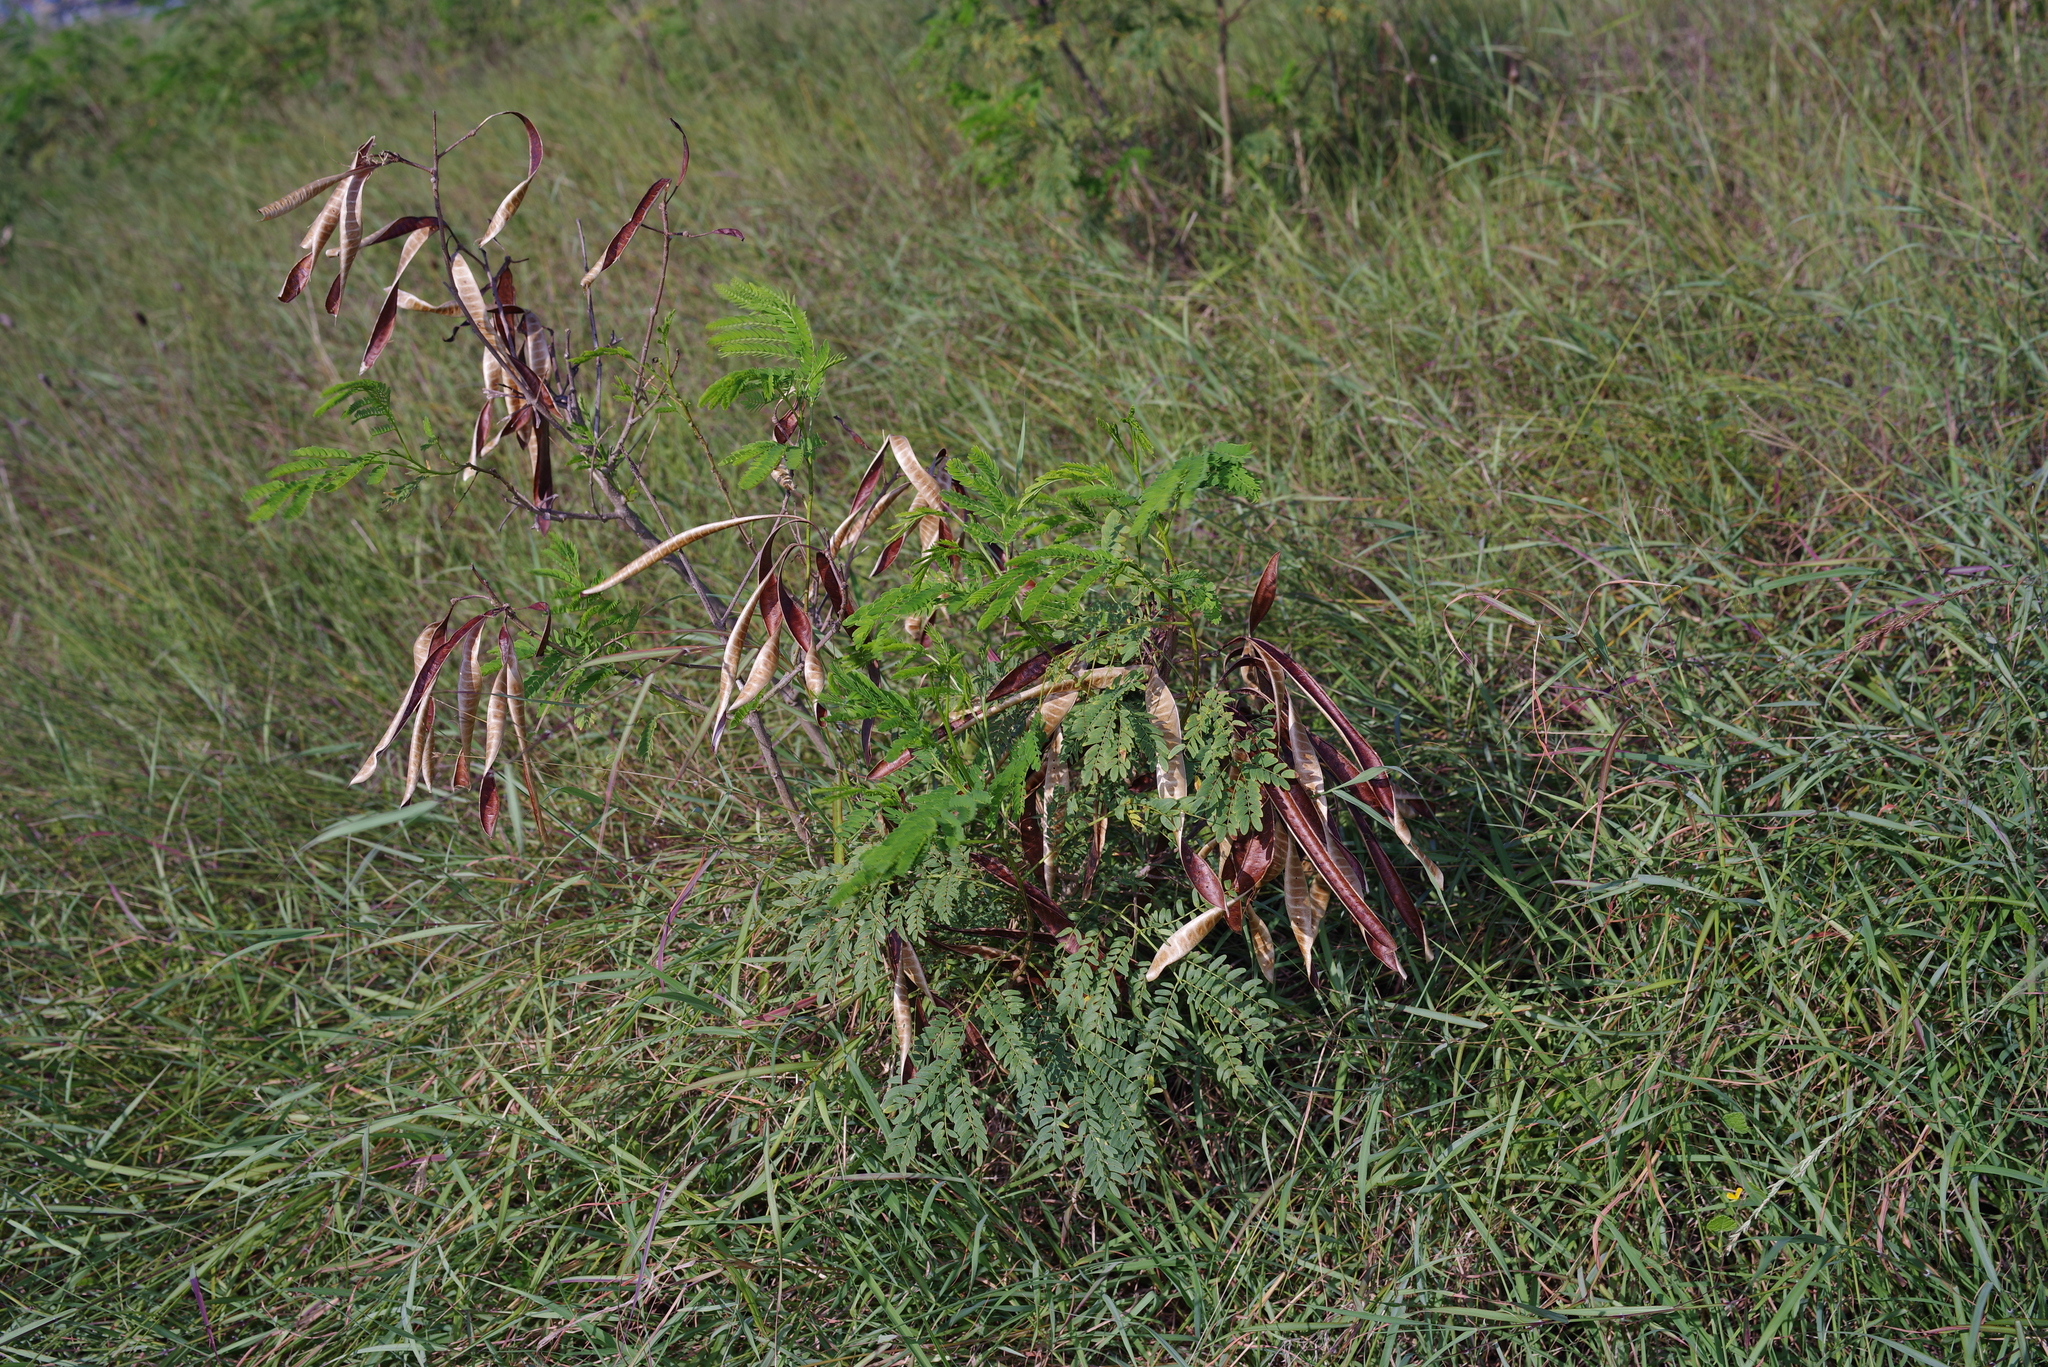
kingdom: Plantae
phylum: Tracheophyta
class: Magnoliopsida
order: Fabales
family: Fabaceae
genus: Leucaena
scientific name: Leucaena leucocephala
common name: White leadtree
